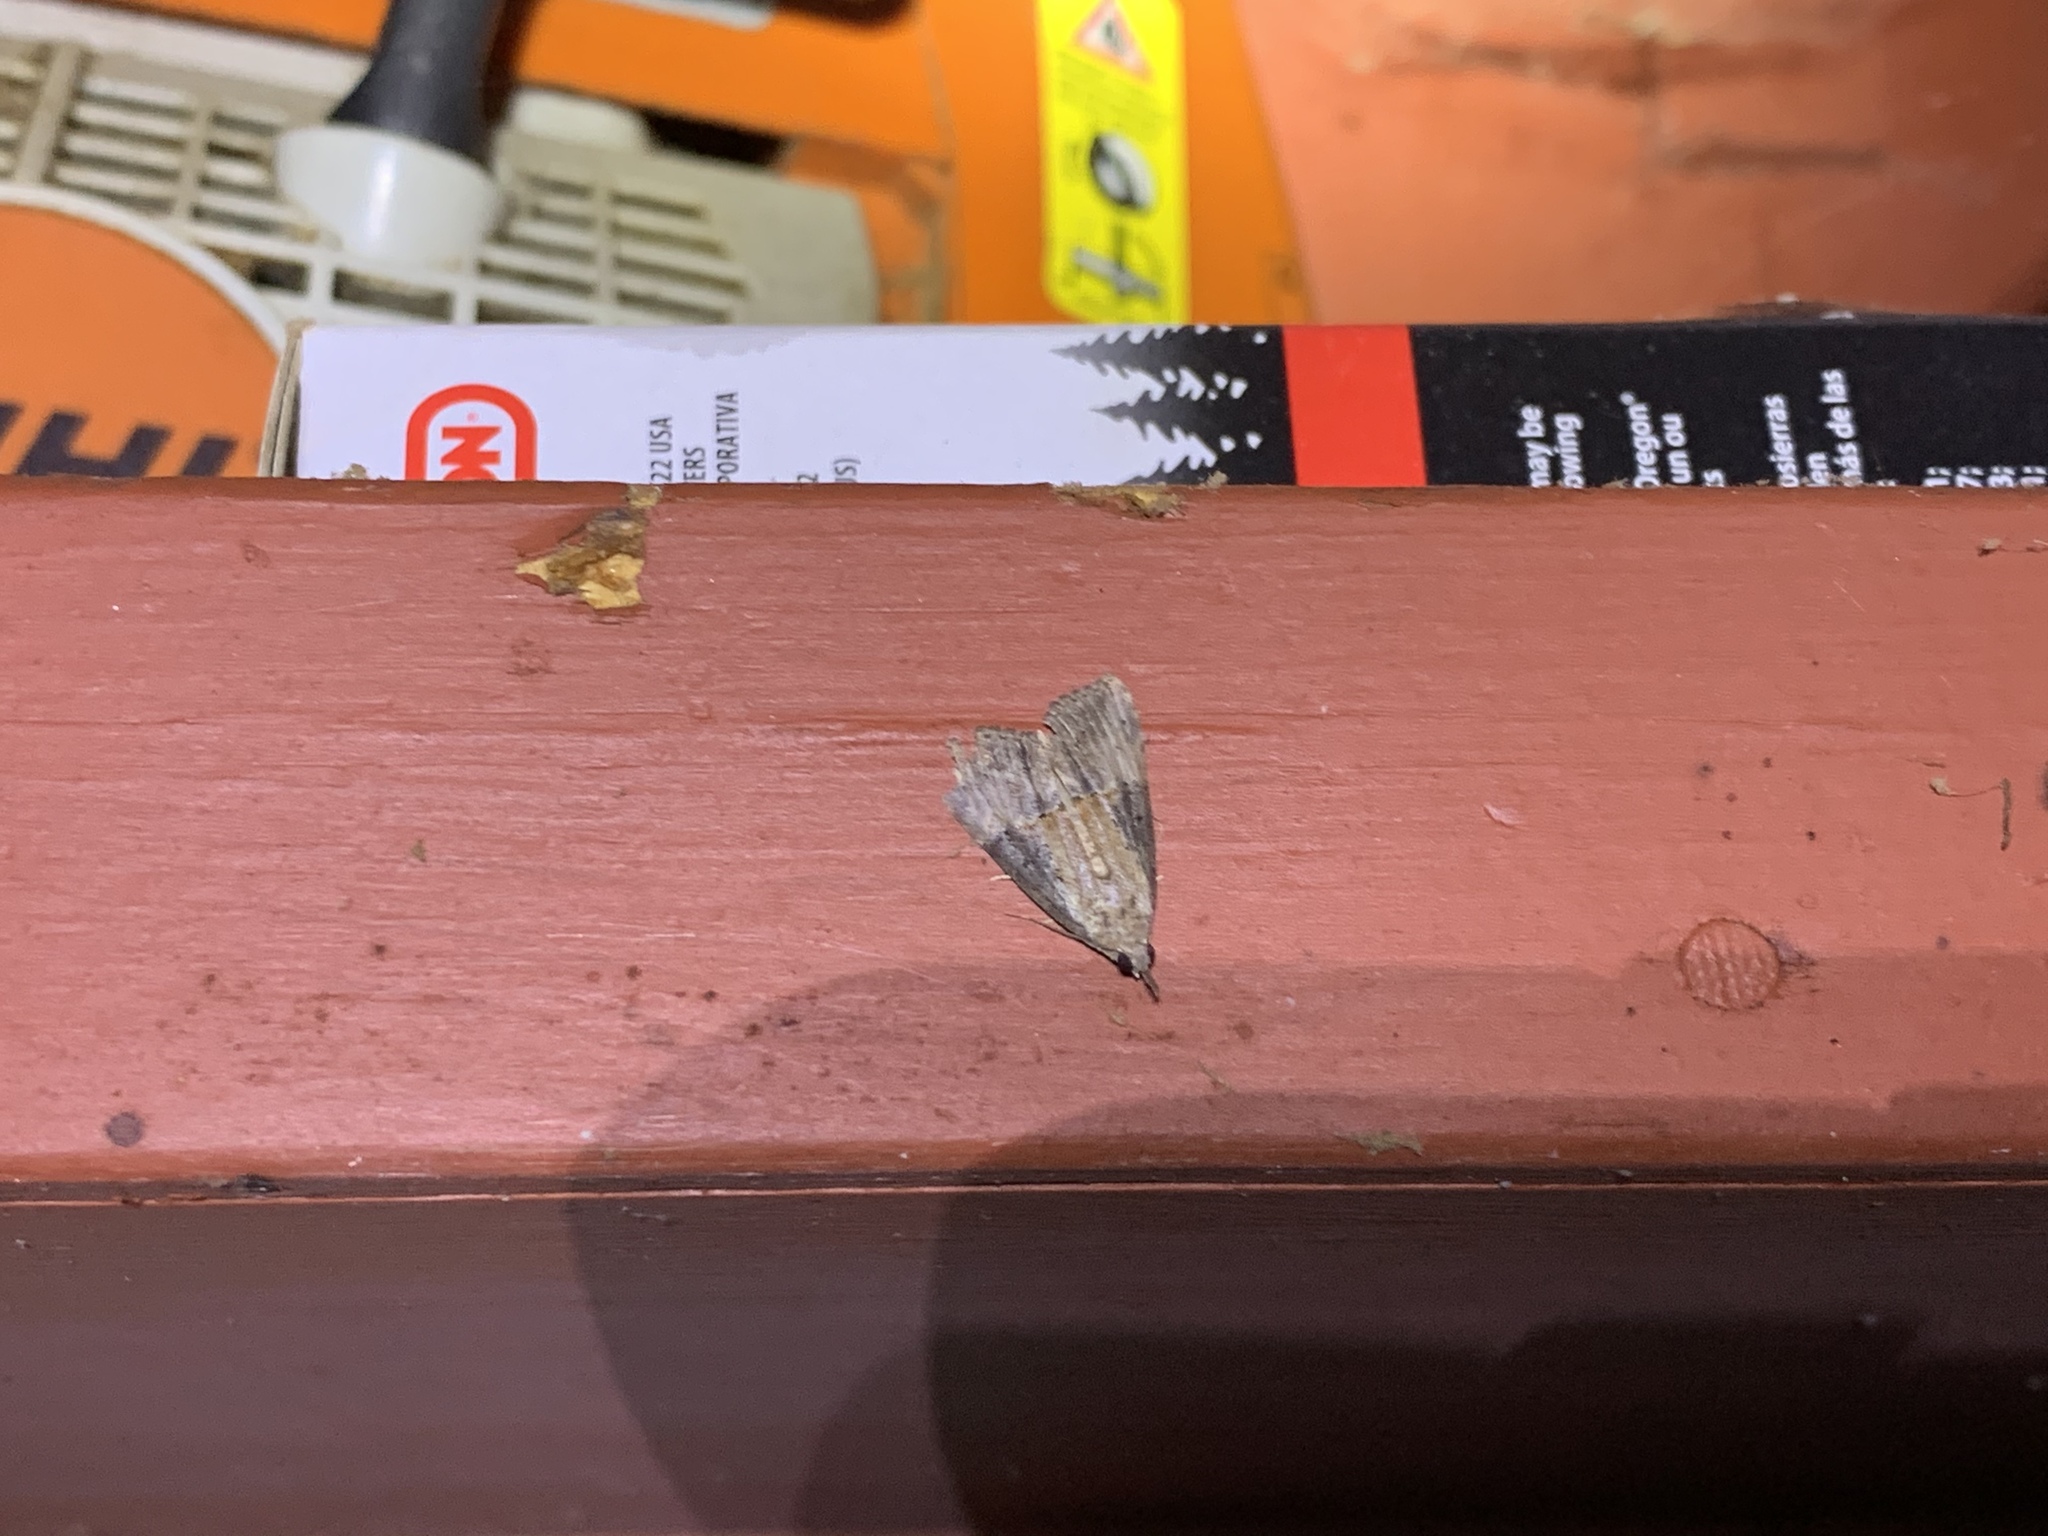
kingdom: Animalia
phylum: Arthropoda
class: Insecta
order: Lepidoptera
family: Erebidae
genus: Hypena
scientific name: Hypena scabra
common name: Green cloverworm
